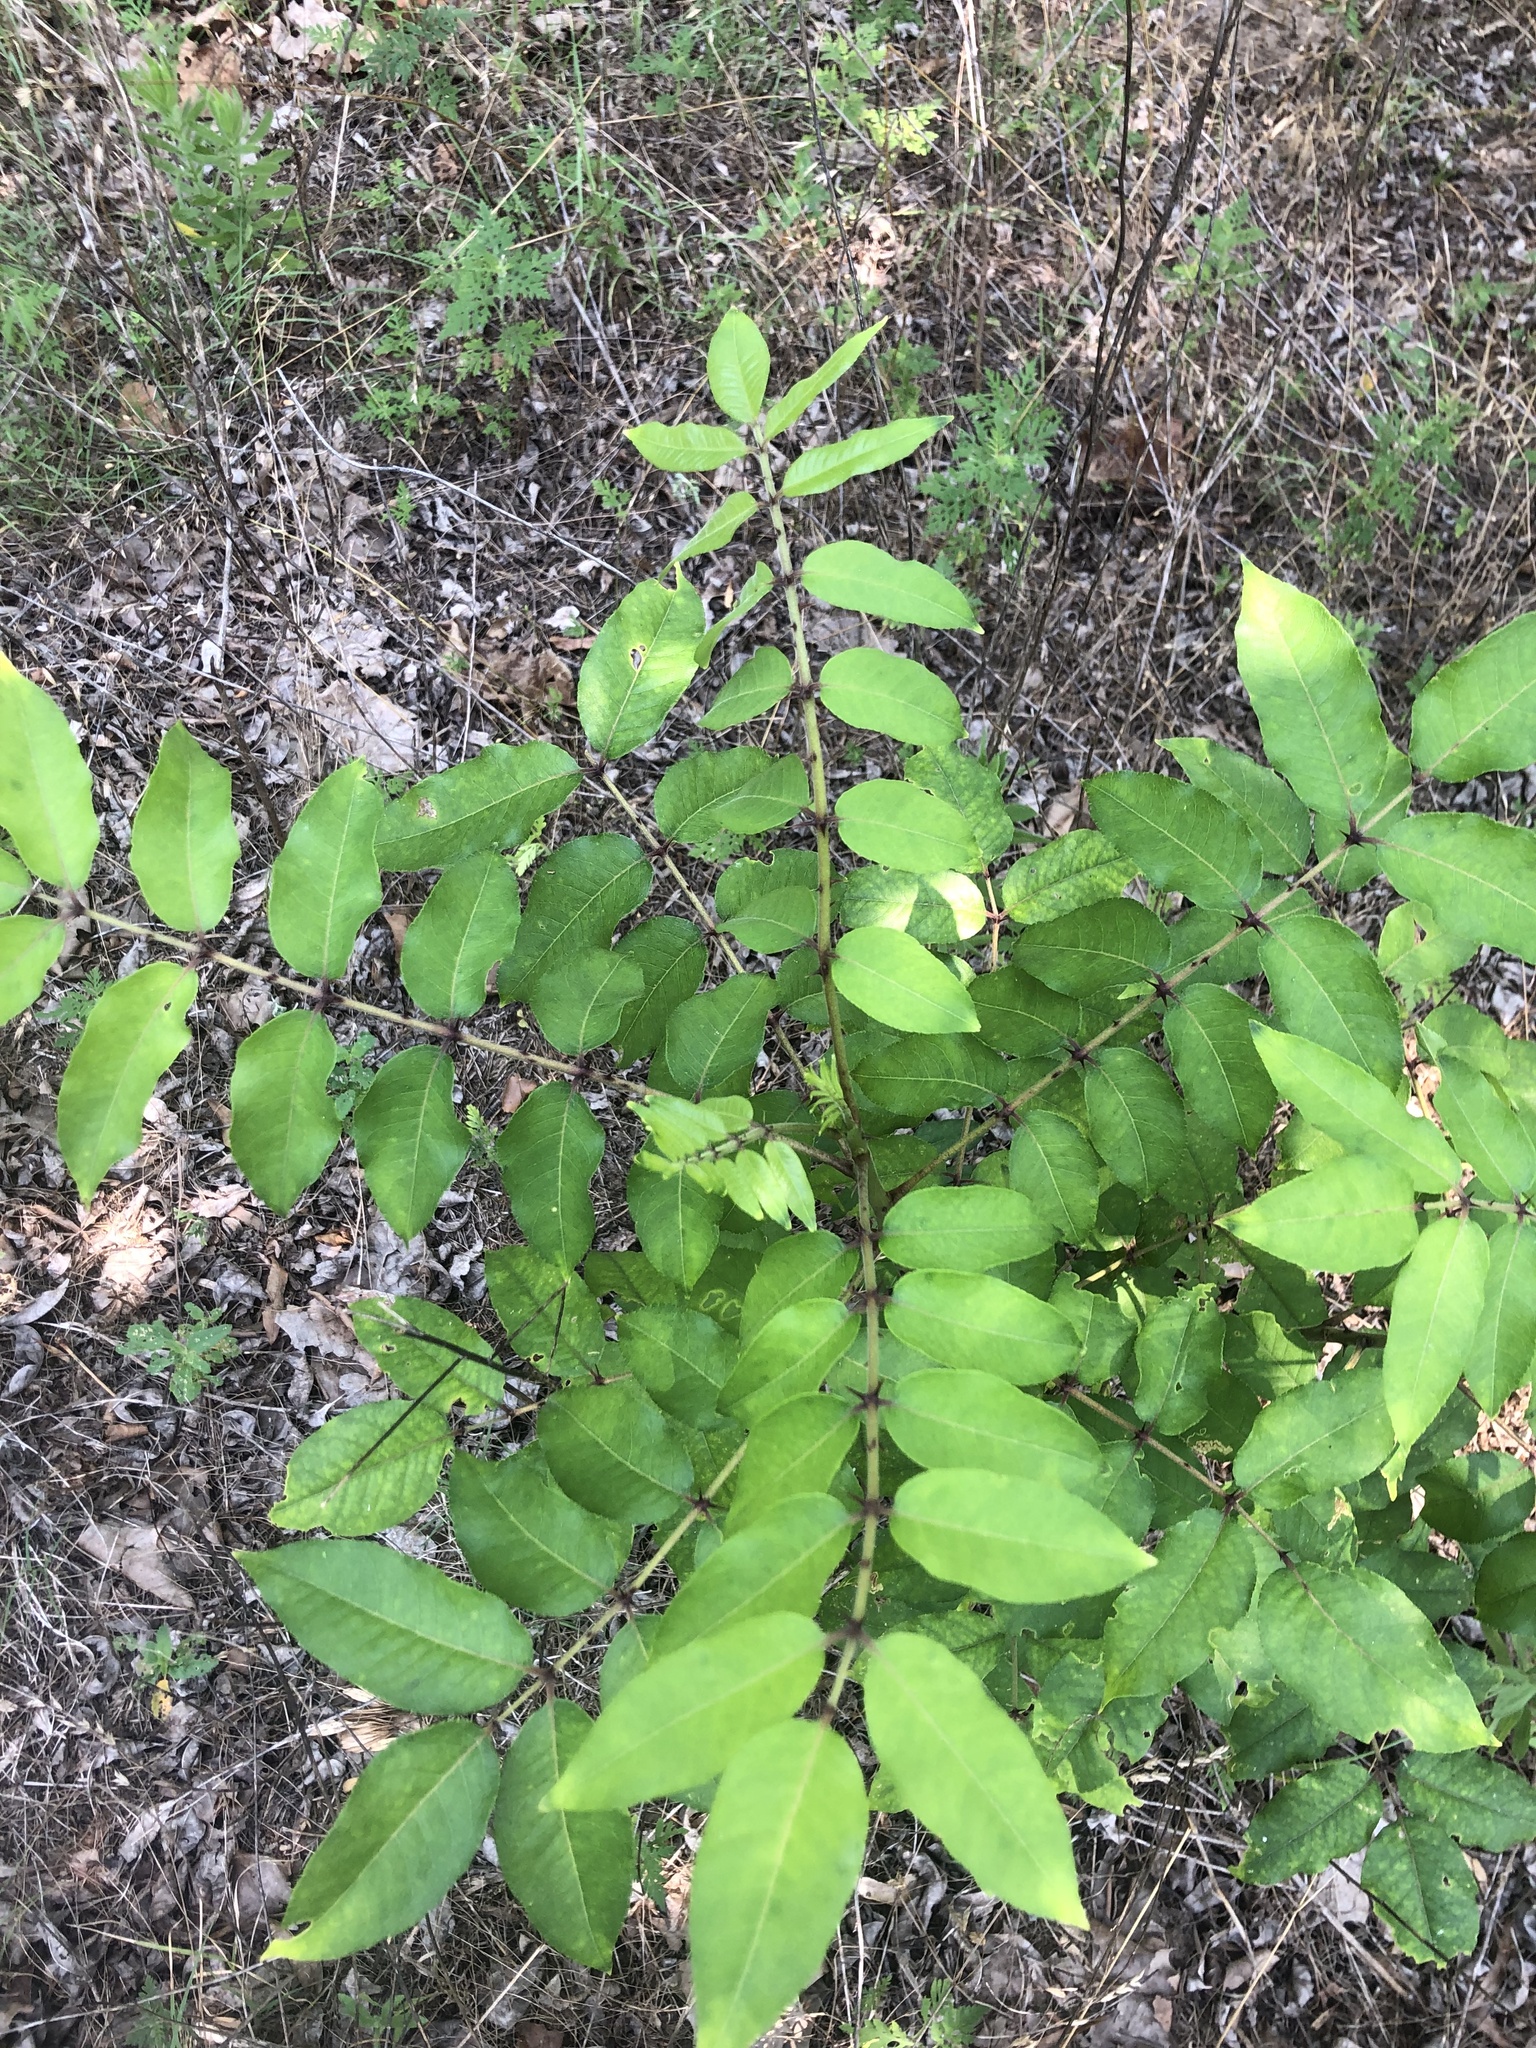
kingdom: Plantae
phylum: Tracheophyta
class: Magnoliopsida
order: Sapindales
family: Rutaceae
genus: Zanthoxylum
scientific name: Zanthoxylum clava-herculis
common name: Hercules'-club
